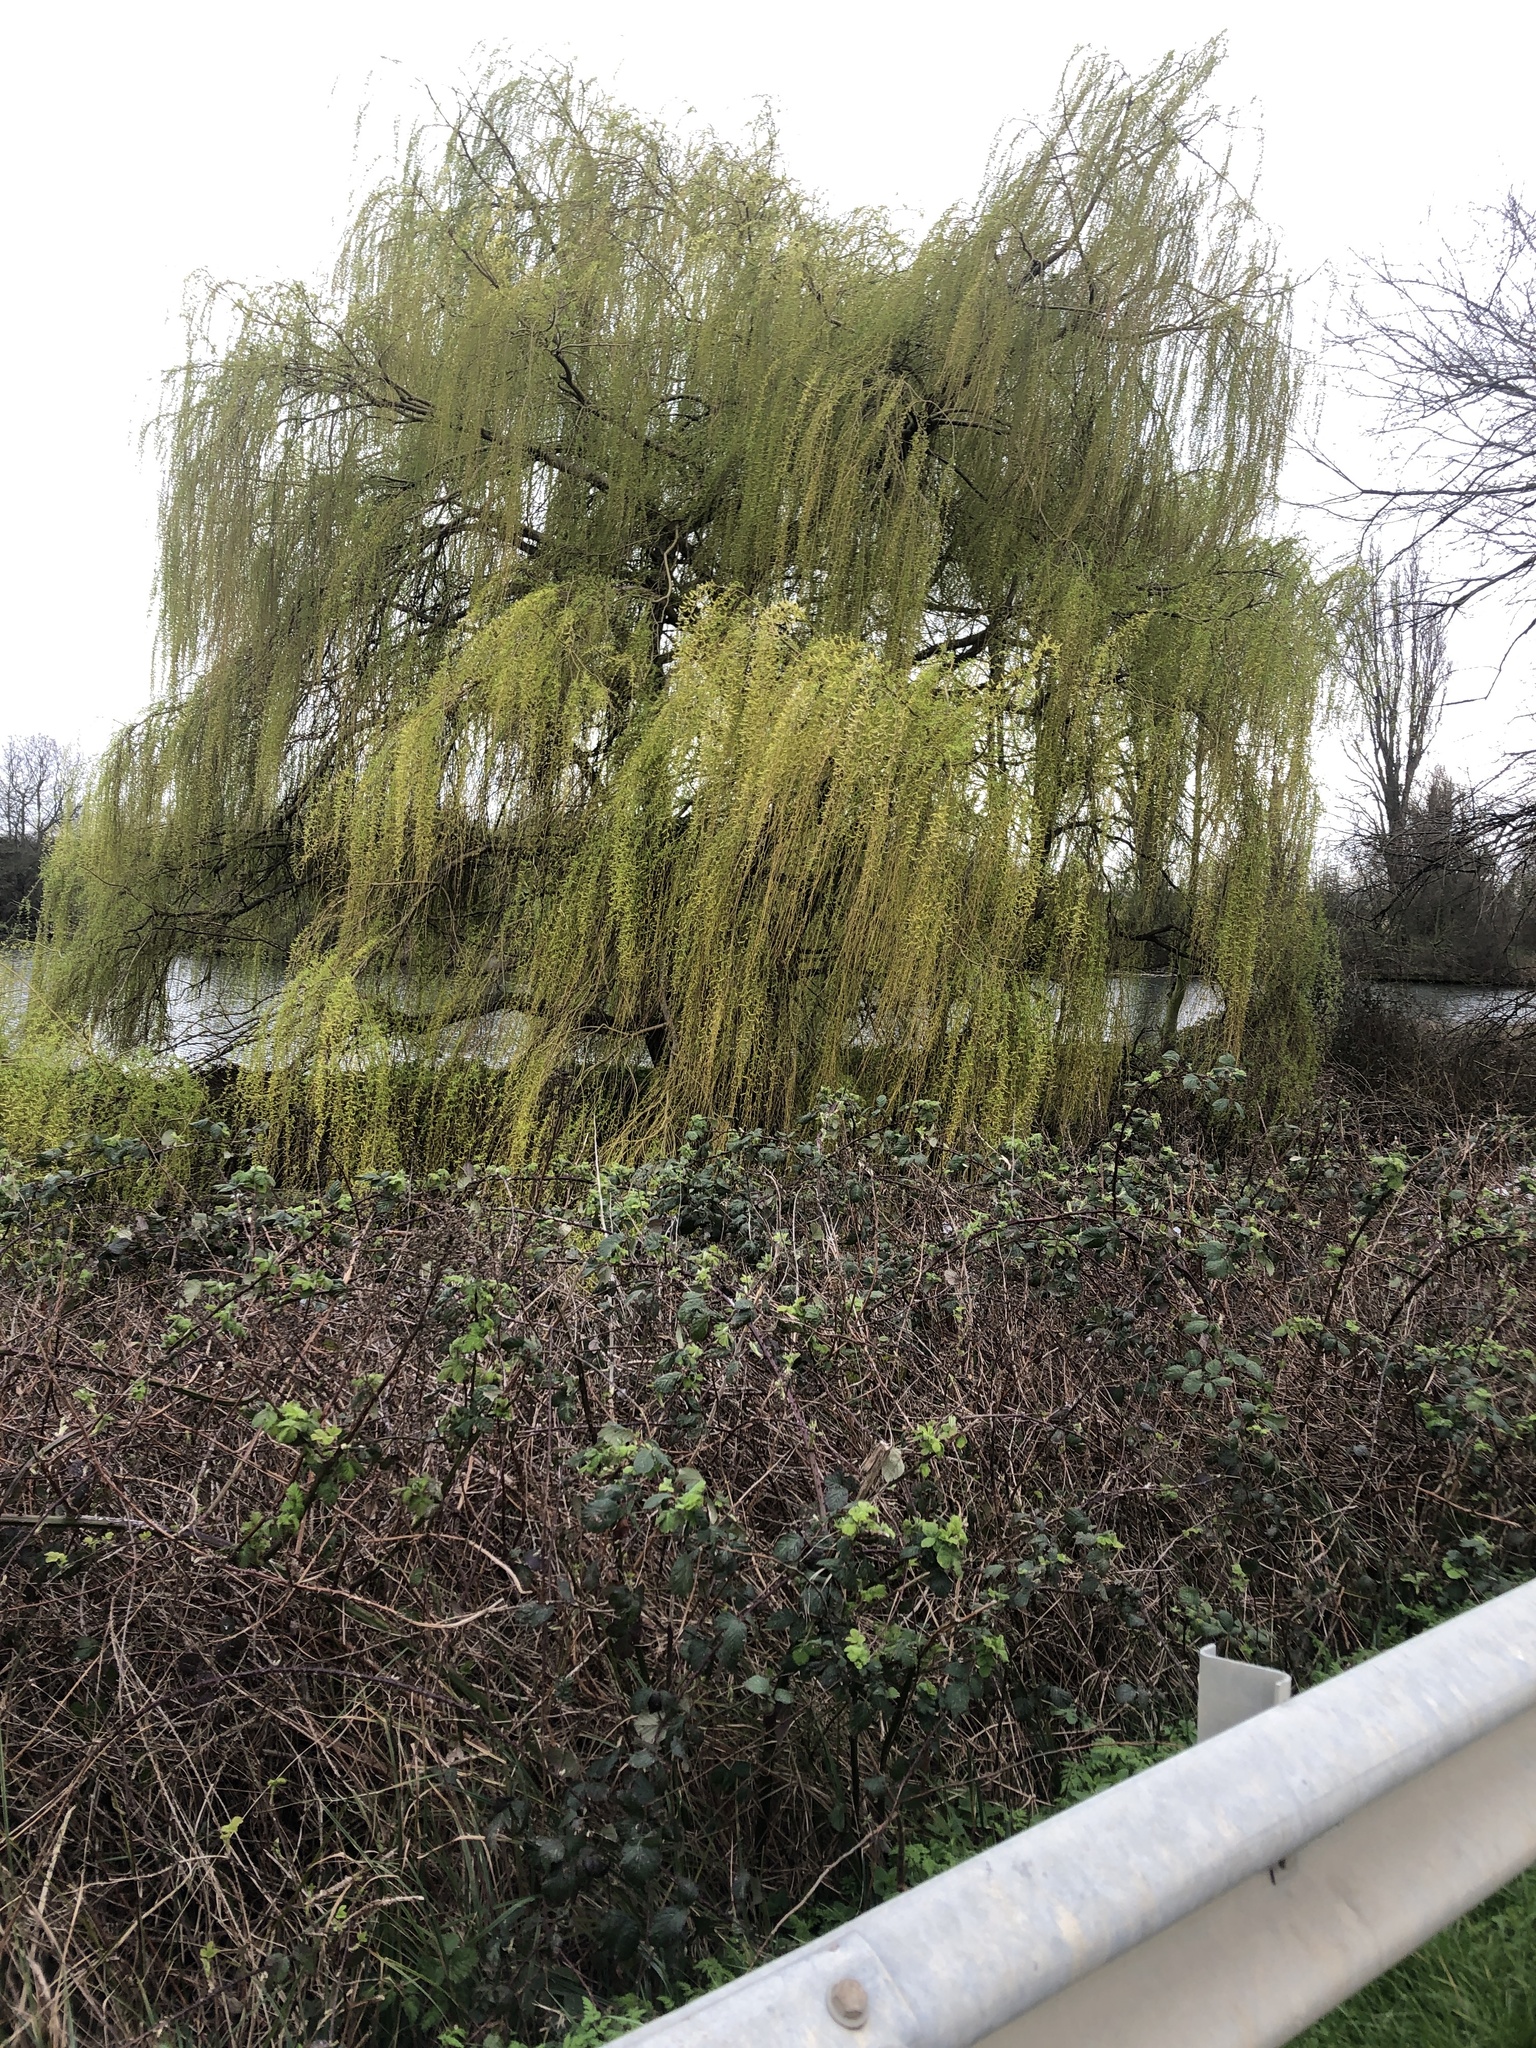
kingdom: Plantae
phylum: Tracheophyta
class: Magnoliopsida
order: Malpighiales
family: Salicaceae
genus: Salix
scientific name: Salix pendulina
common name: Wisconsin weeping willow
